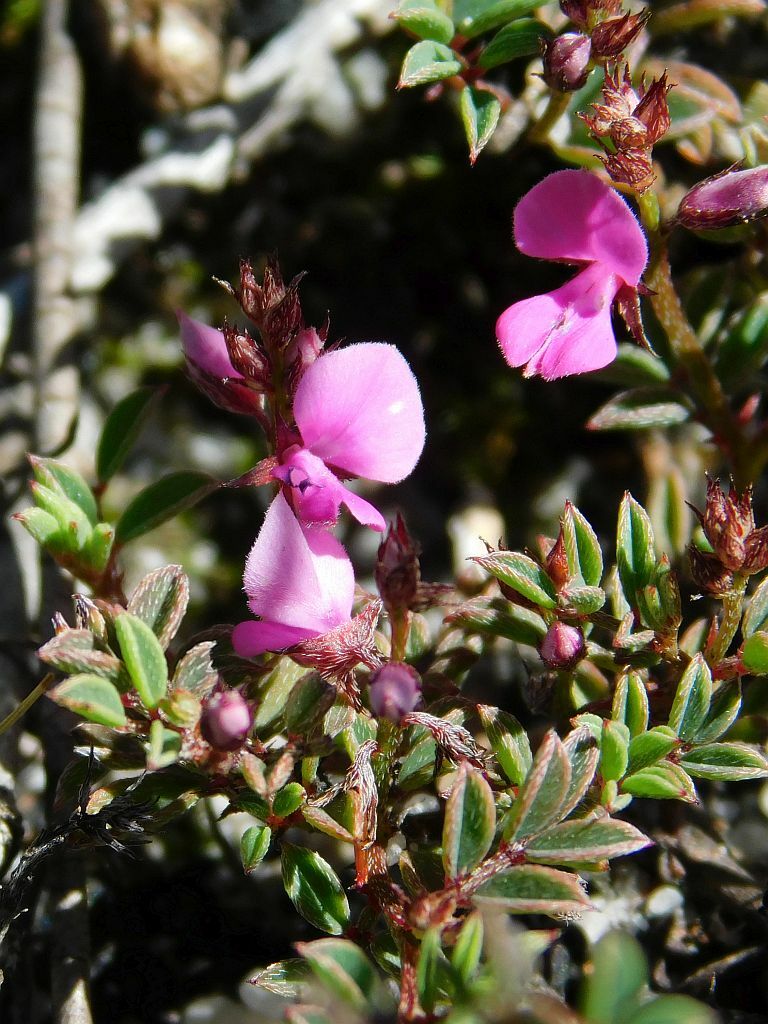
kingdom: Plantae
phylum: Tracheophyta
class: Magnoliopsida
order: Fabales
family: Fabaceae
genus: Indigofera
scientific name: Indigofera
